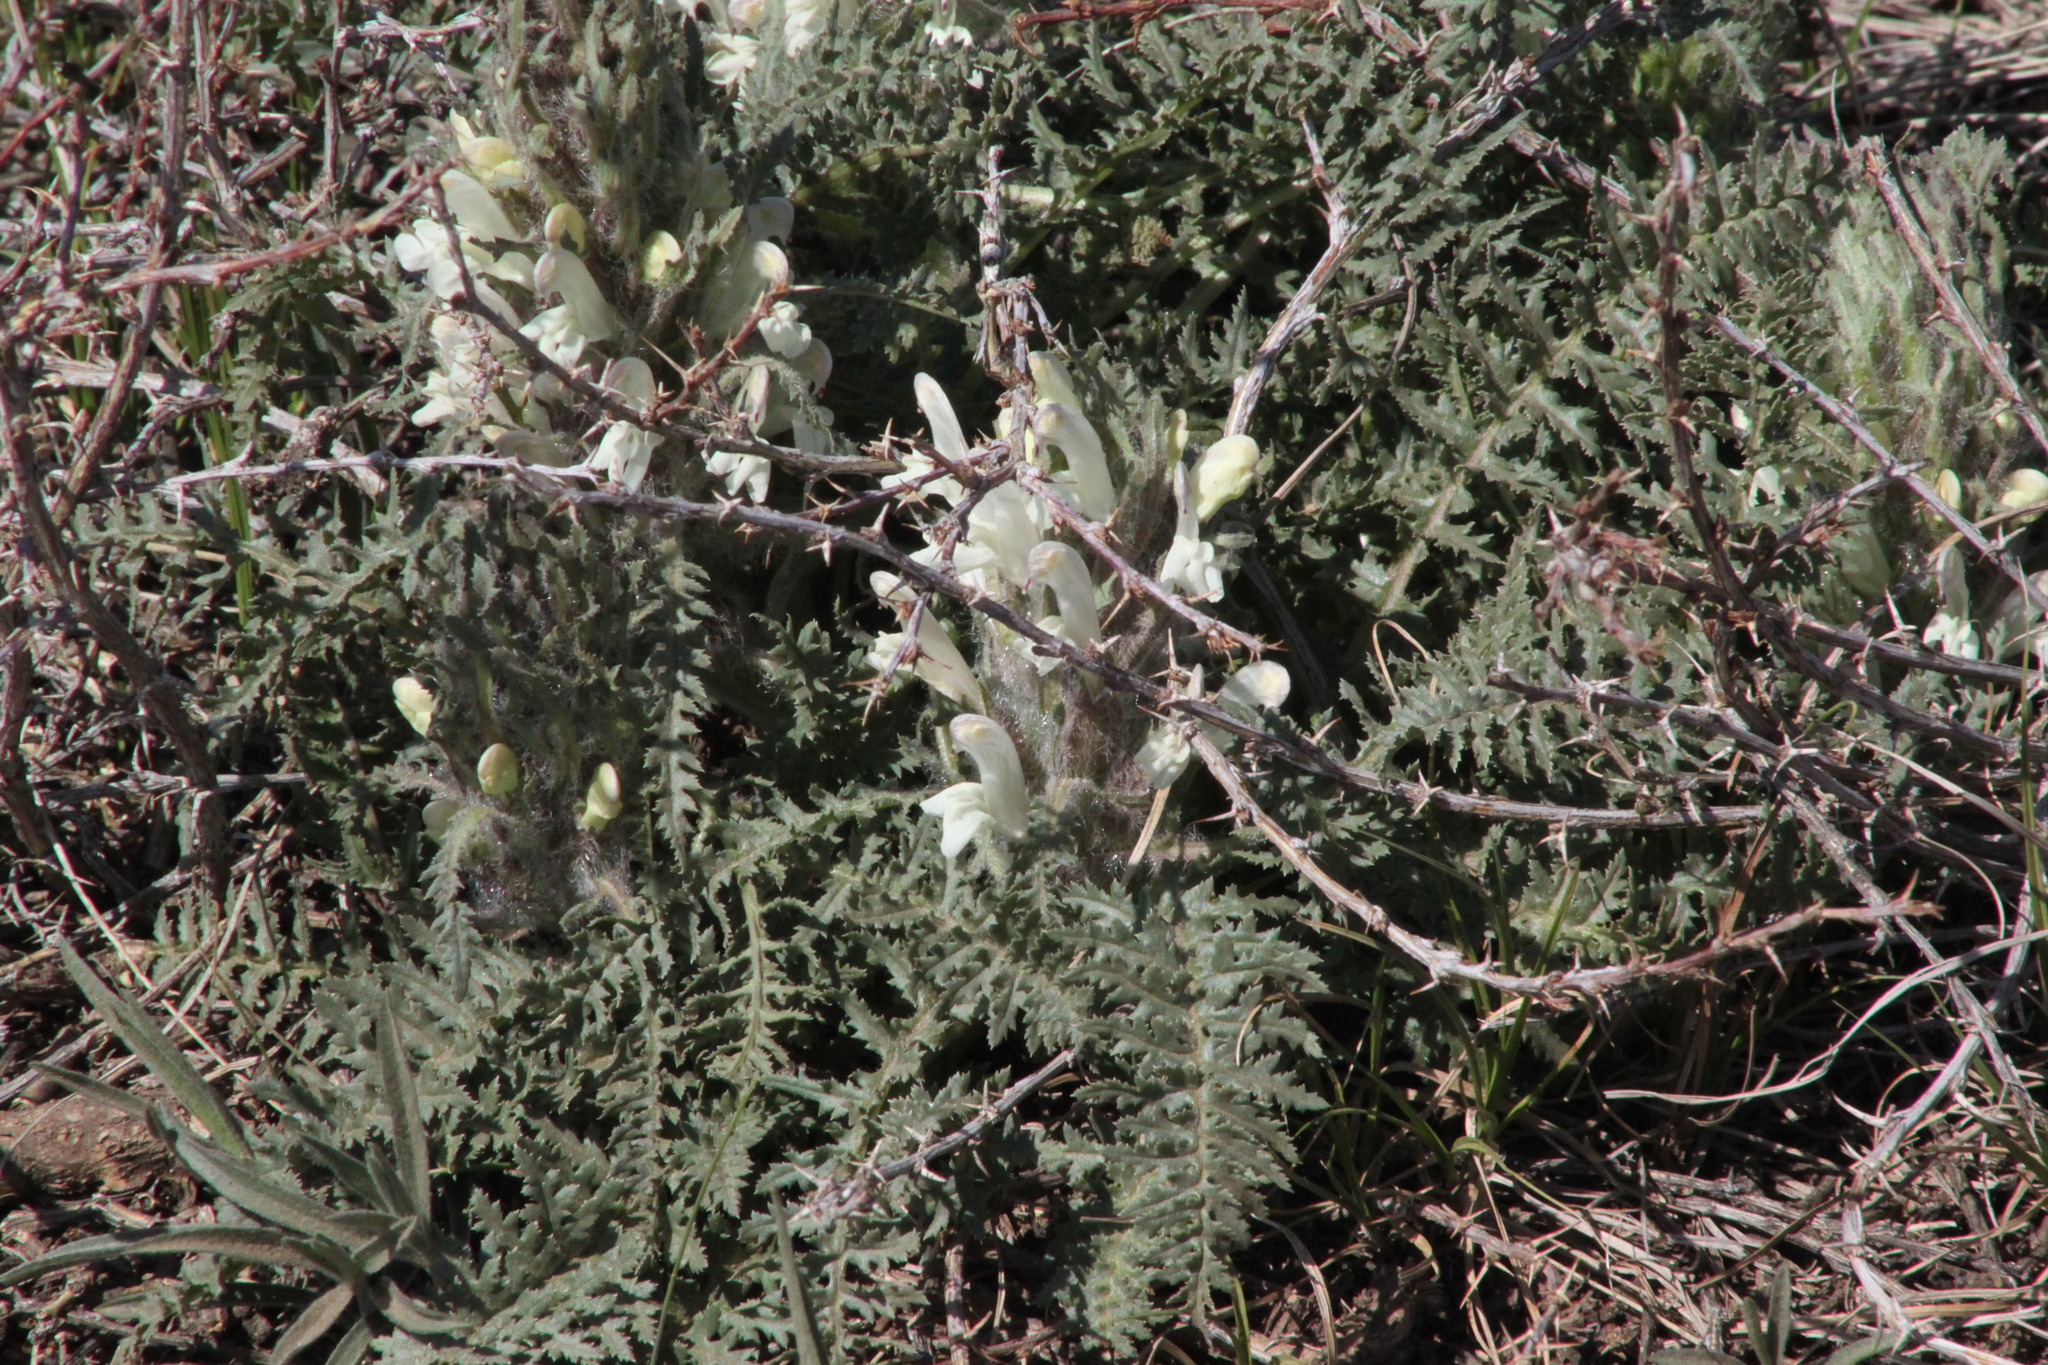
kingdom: Plantae
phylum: Tracheophyta
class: Magnoliopsida
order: Lamiales
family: Orobanchaceae
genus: Pedicularis
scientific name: Pedicularis physocalyx
